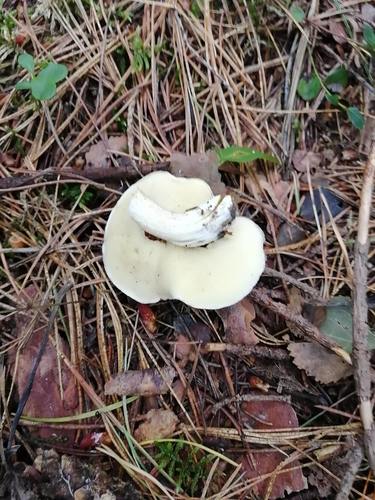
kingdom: Fungi
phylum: Basidiomycota
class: Agaricomycetes
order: Boletales
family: Suillaceae
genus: Suillus
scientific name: Suillus placidus
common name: Slippery white bolete
